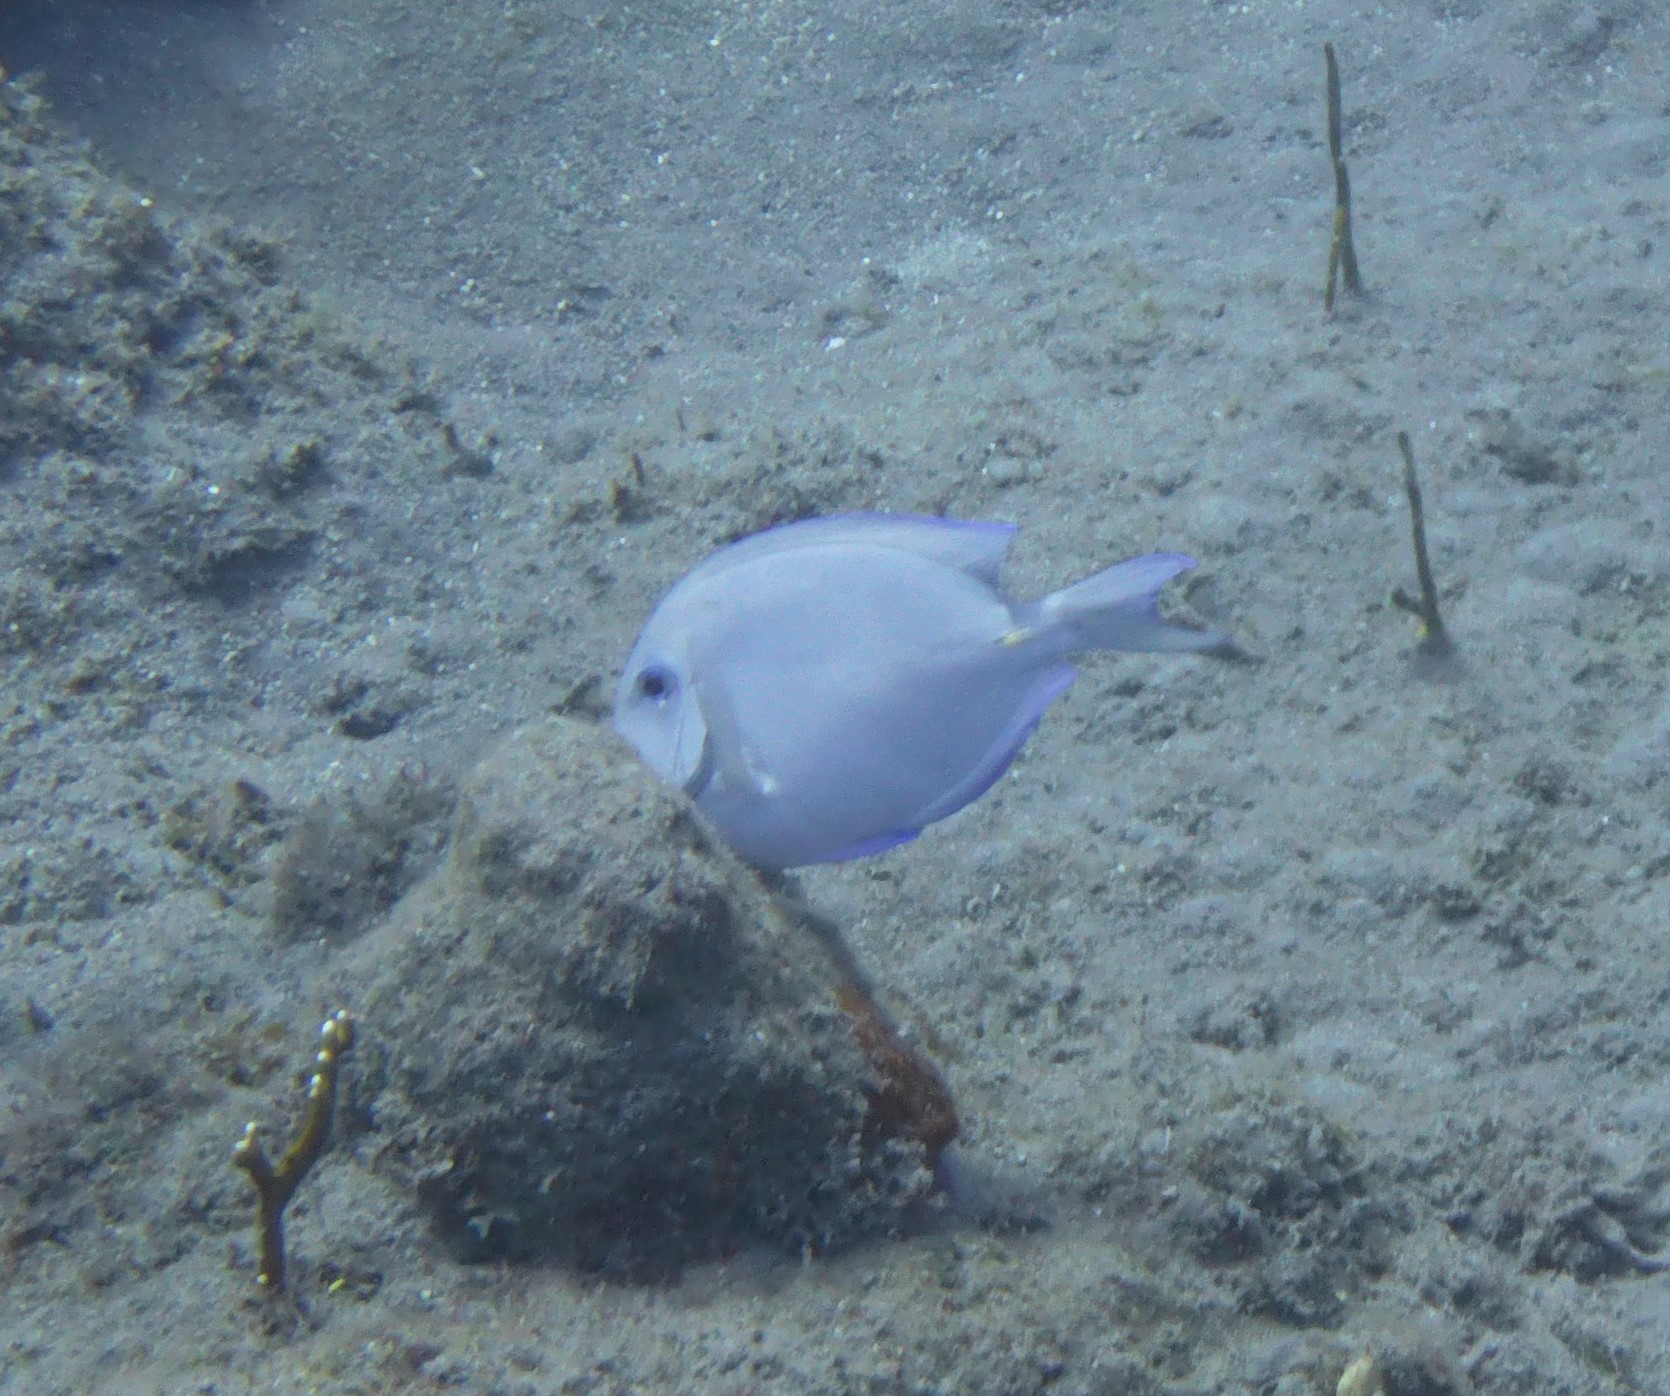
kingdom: Animalia
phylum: Chordata
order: Perciformes
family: Acanthuridae
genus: Acanthurus
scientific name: Acanthurus coeruleus
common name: Blue tang
